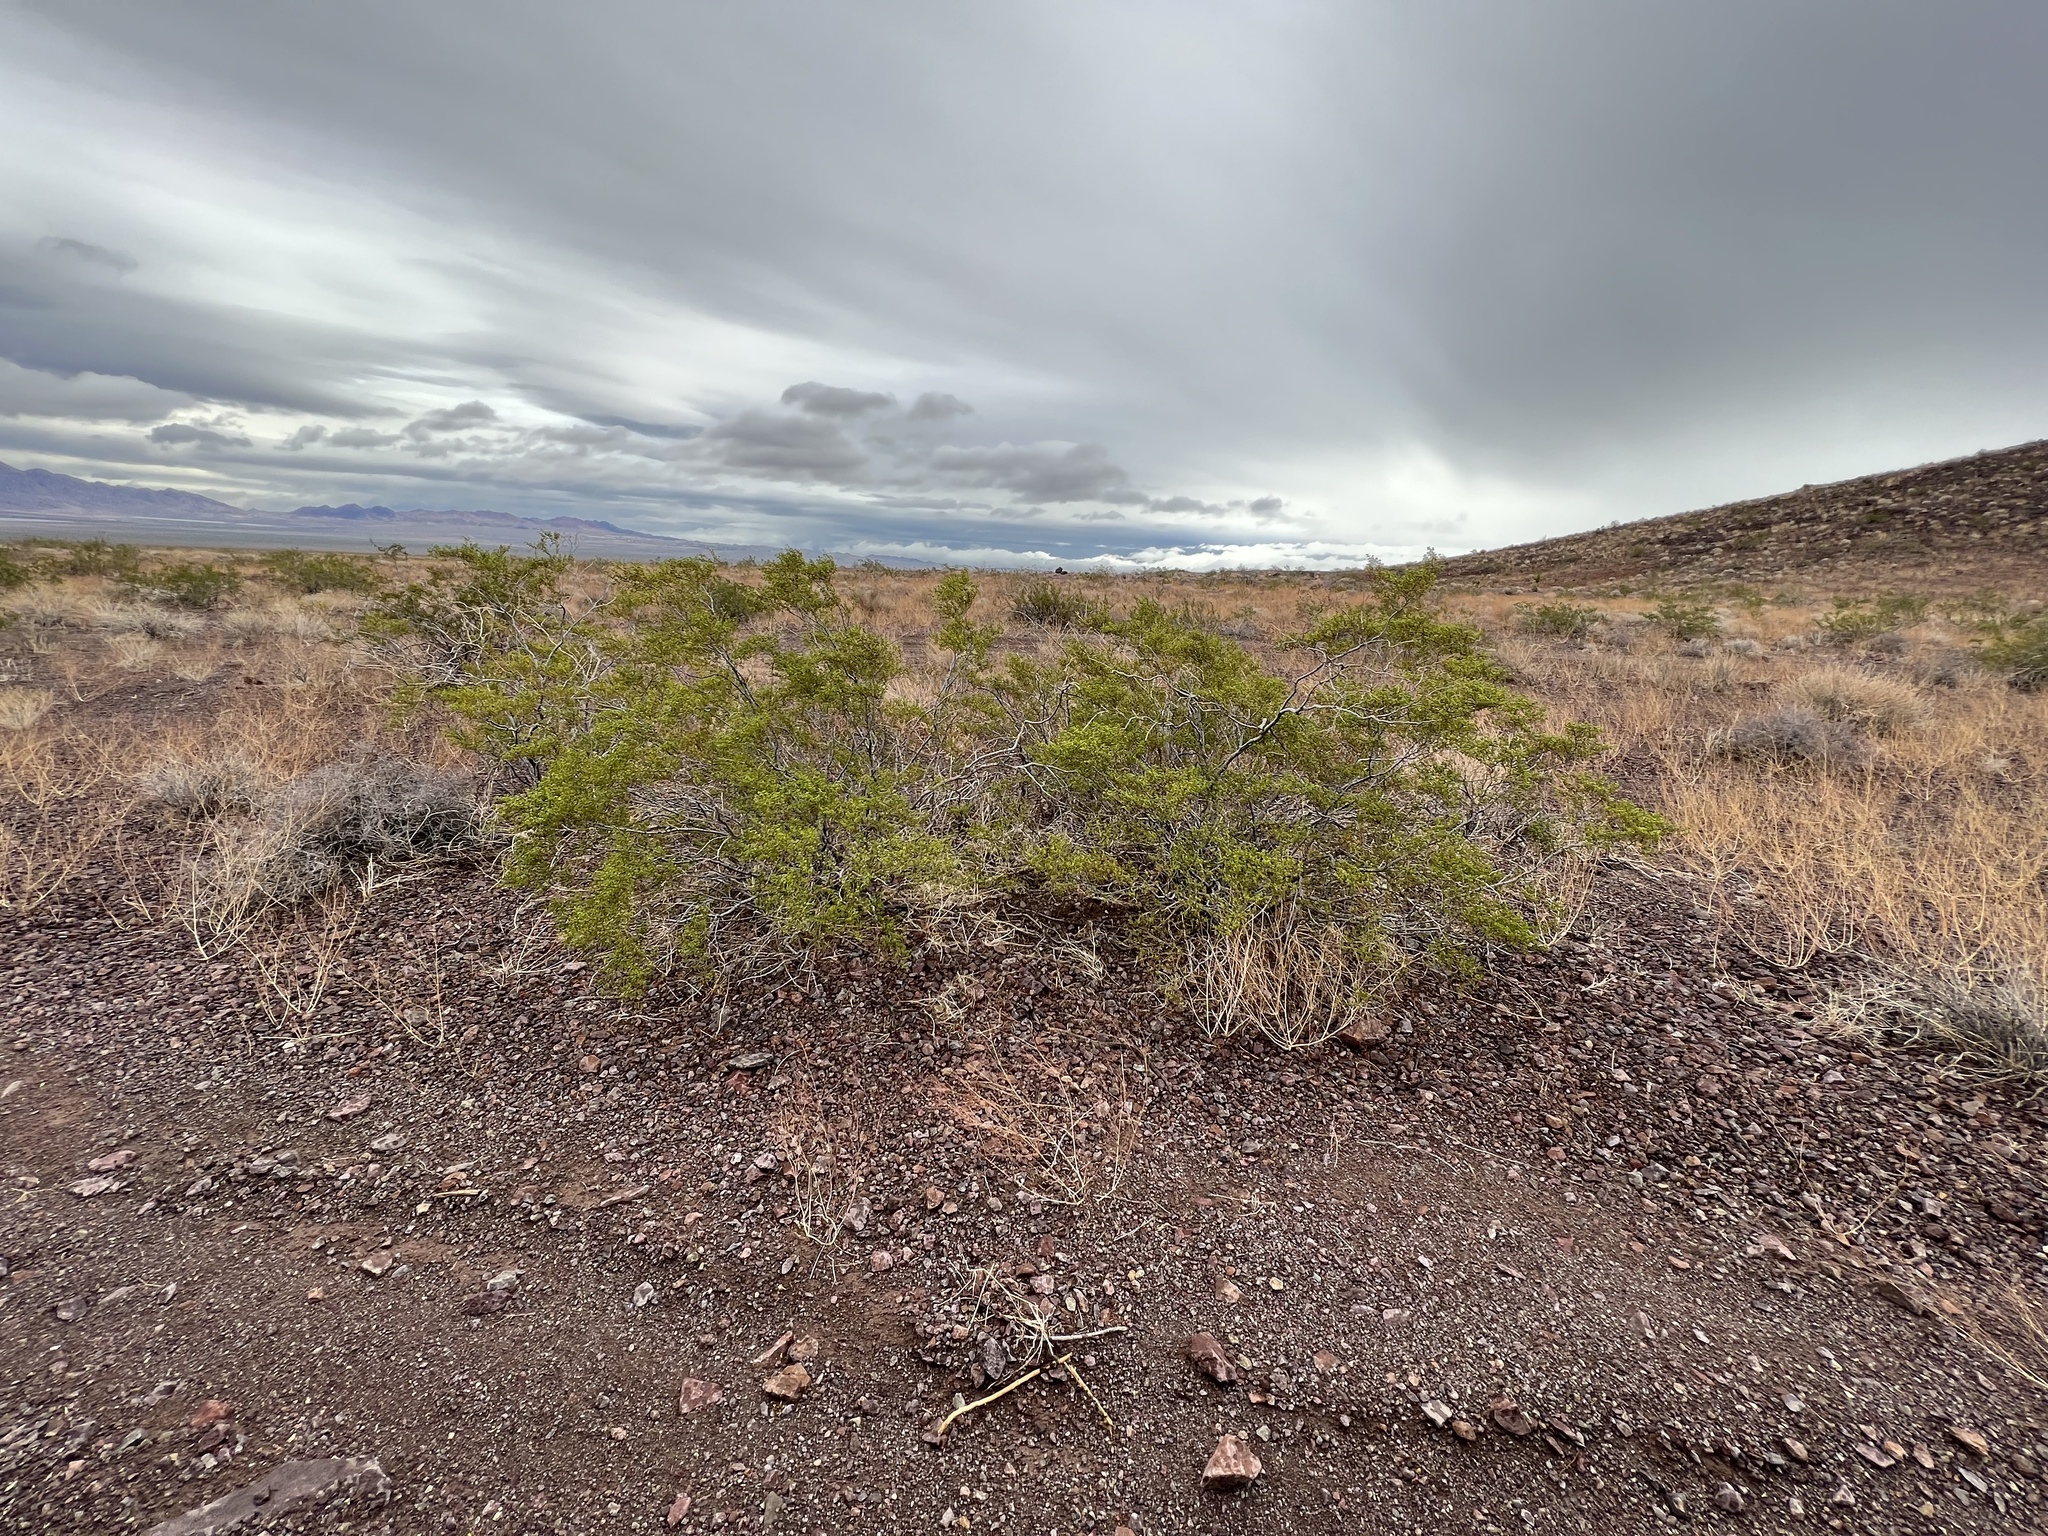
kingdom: Plantae
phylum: Tracheophyta
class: Magnoliopsida
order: Zygophyllales
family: Zygophyllaceae
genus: Larrea
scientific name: Larrea tridentata
